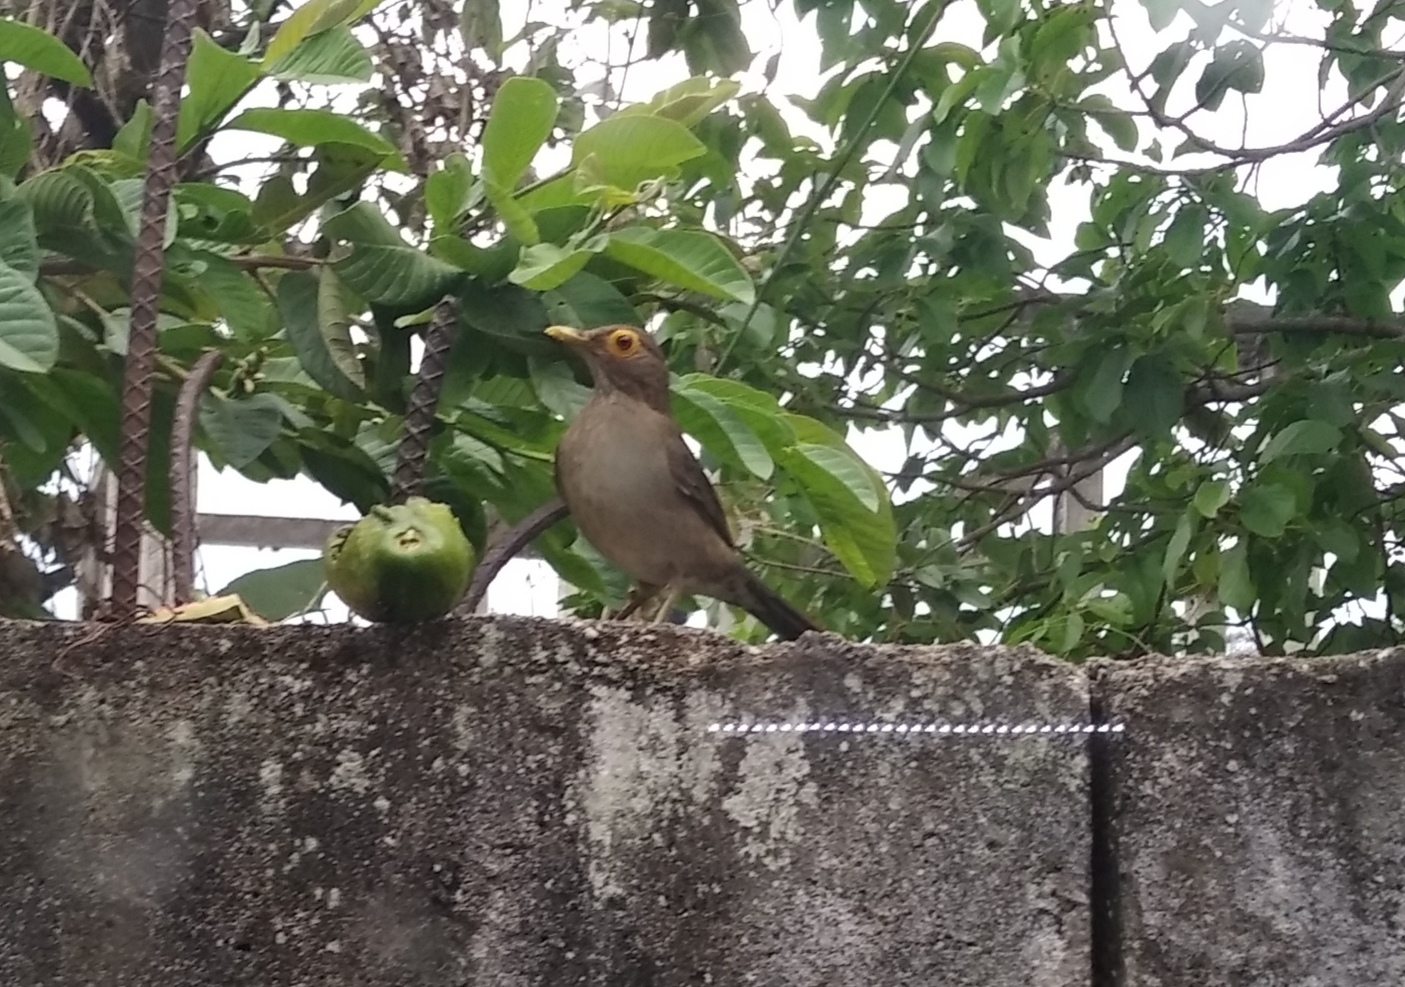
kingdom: Animalia
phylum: Chordata
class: Aves
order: Passeriformes
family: Turdidae
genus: Turdus
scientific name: Turdus nudigenis
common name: Spectacled thrush
